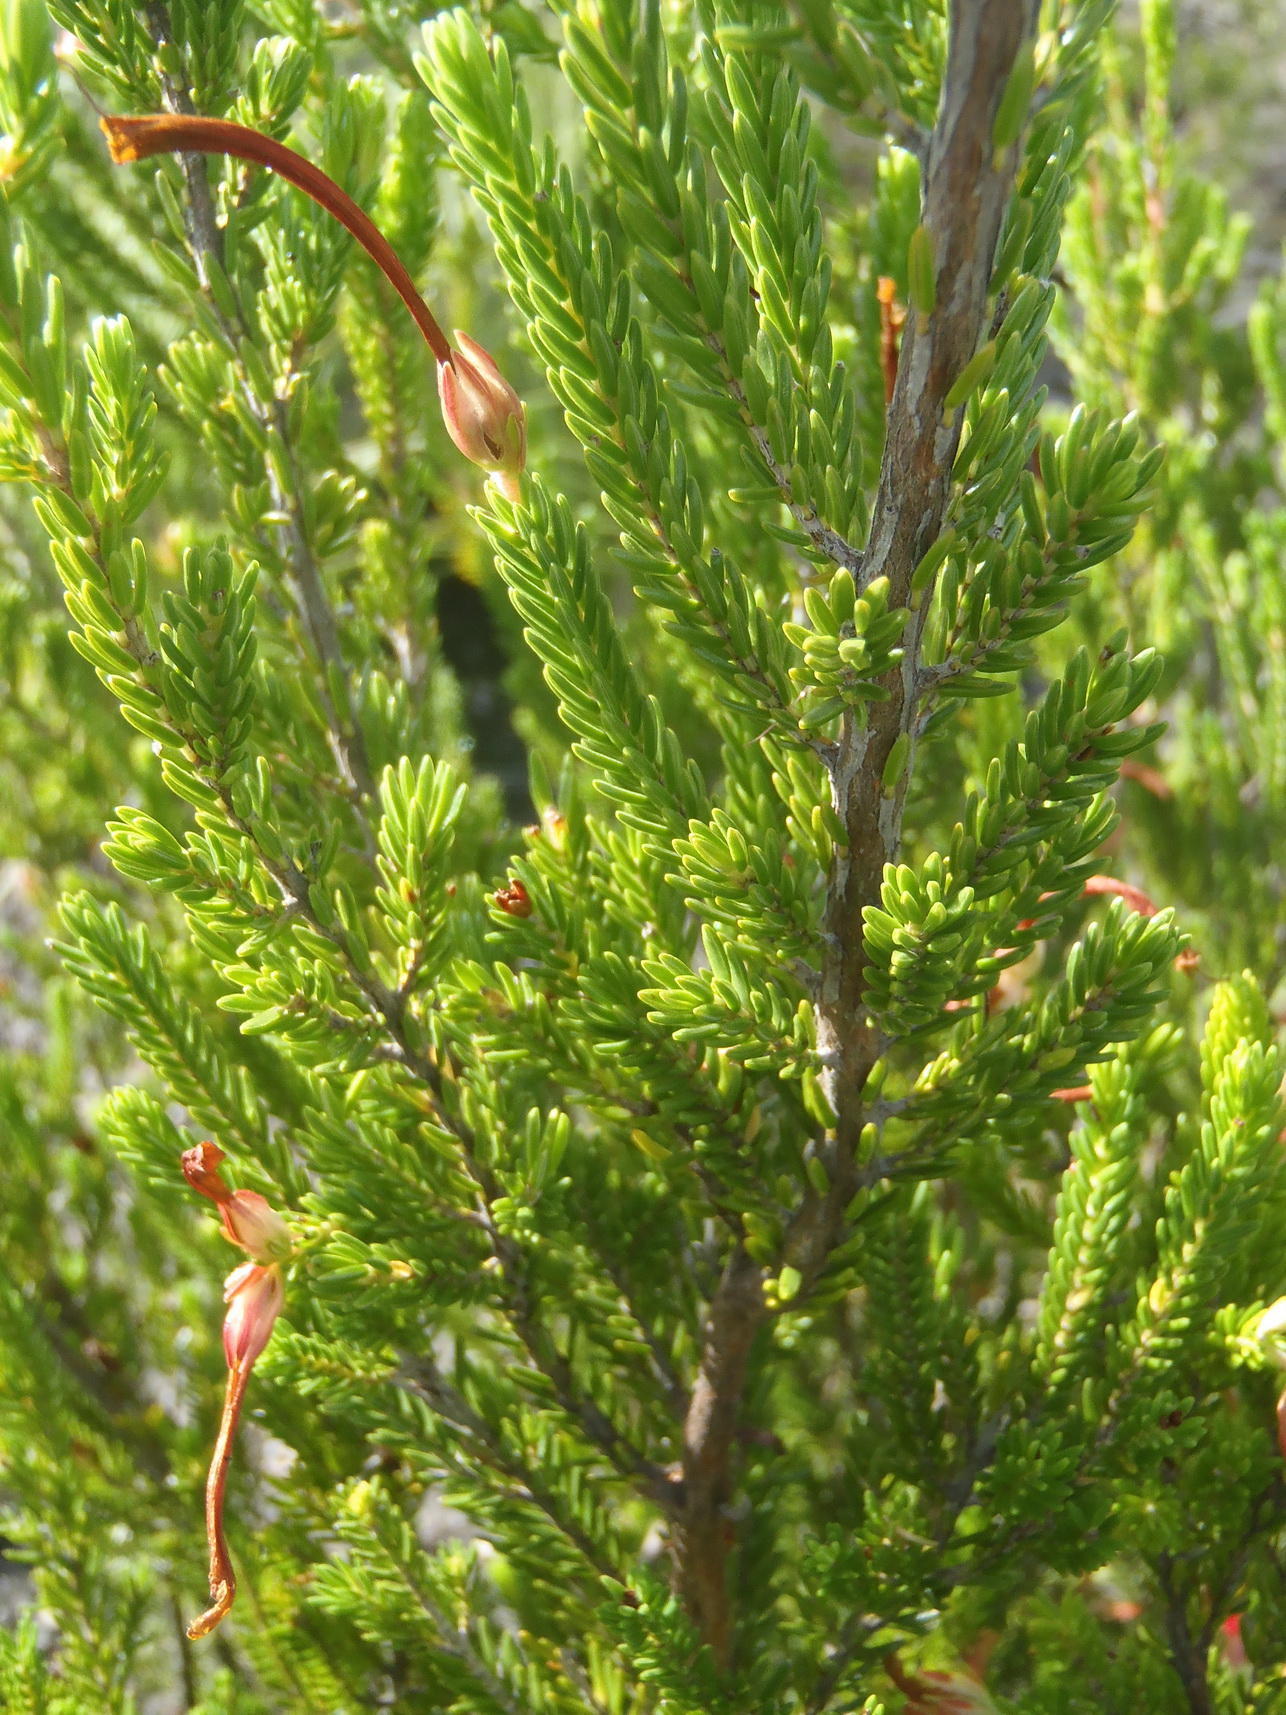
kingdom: Plantae
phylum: Tracheophyta
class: Magnoliopsida
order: Ericales
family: Ericaceae
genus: Erica
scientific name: Erica discolor
